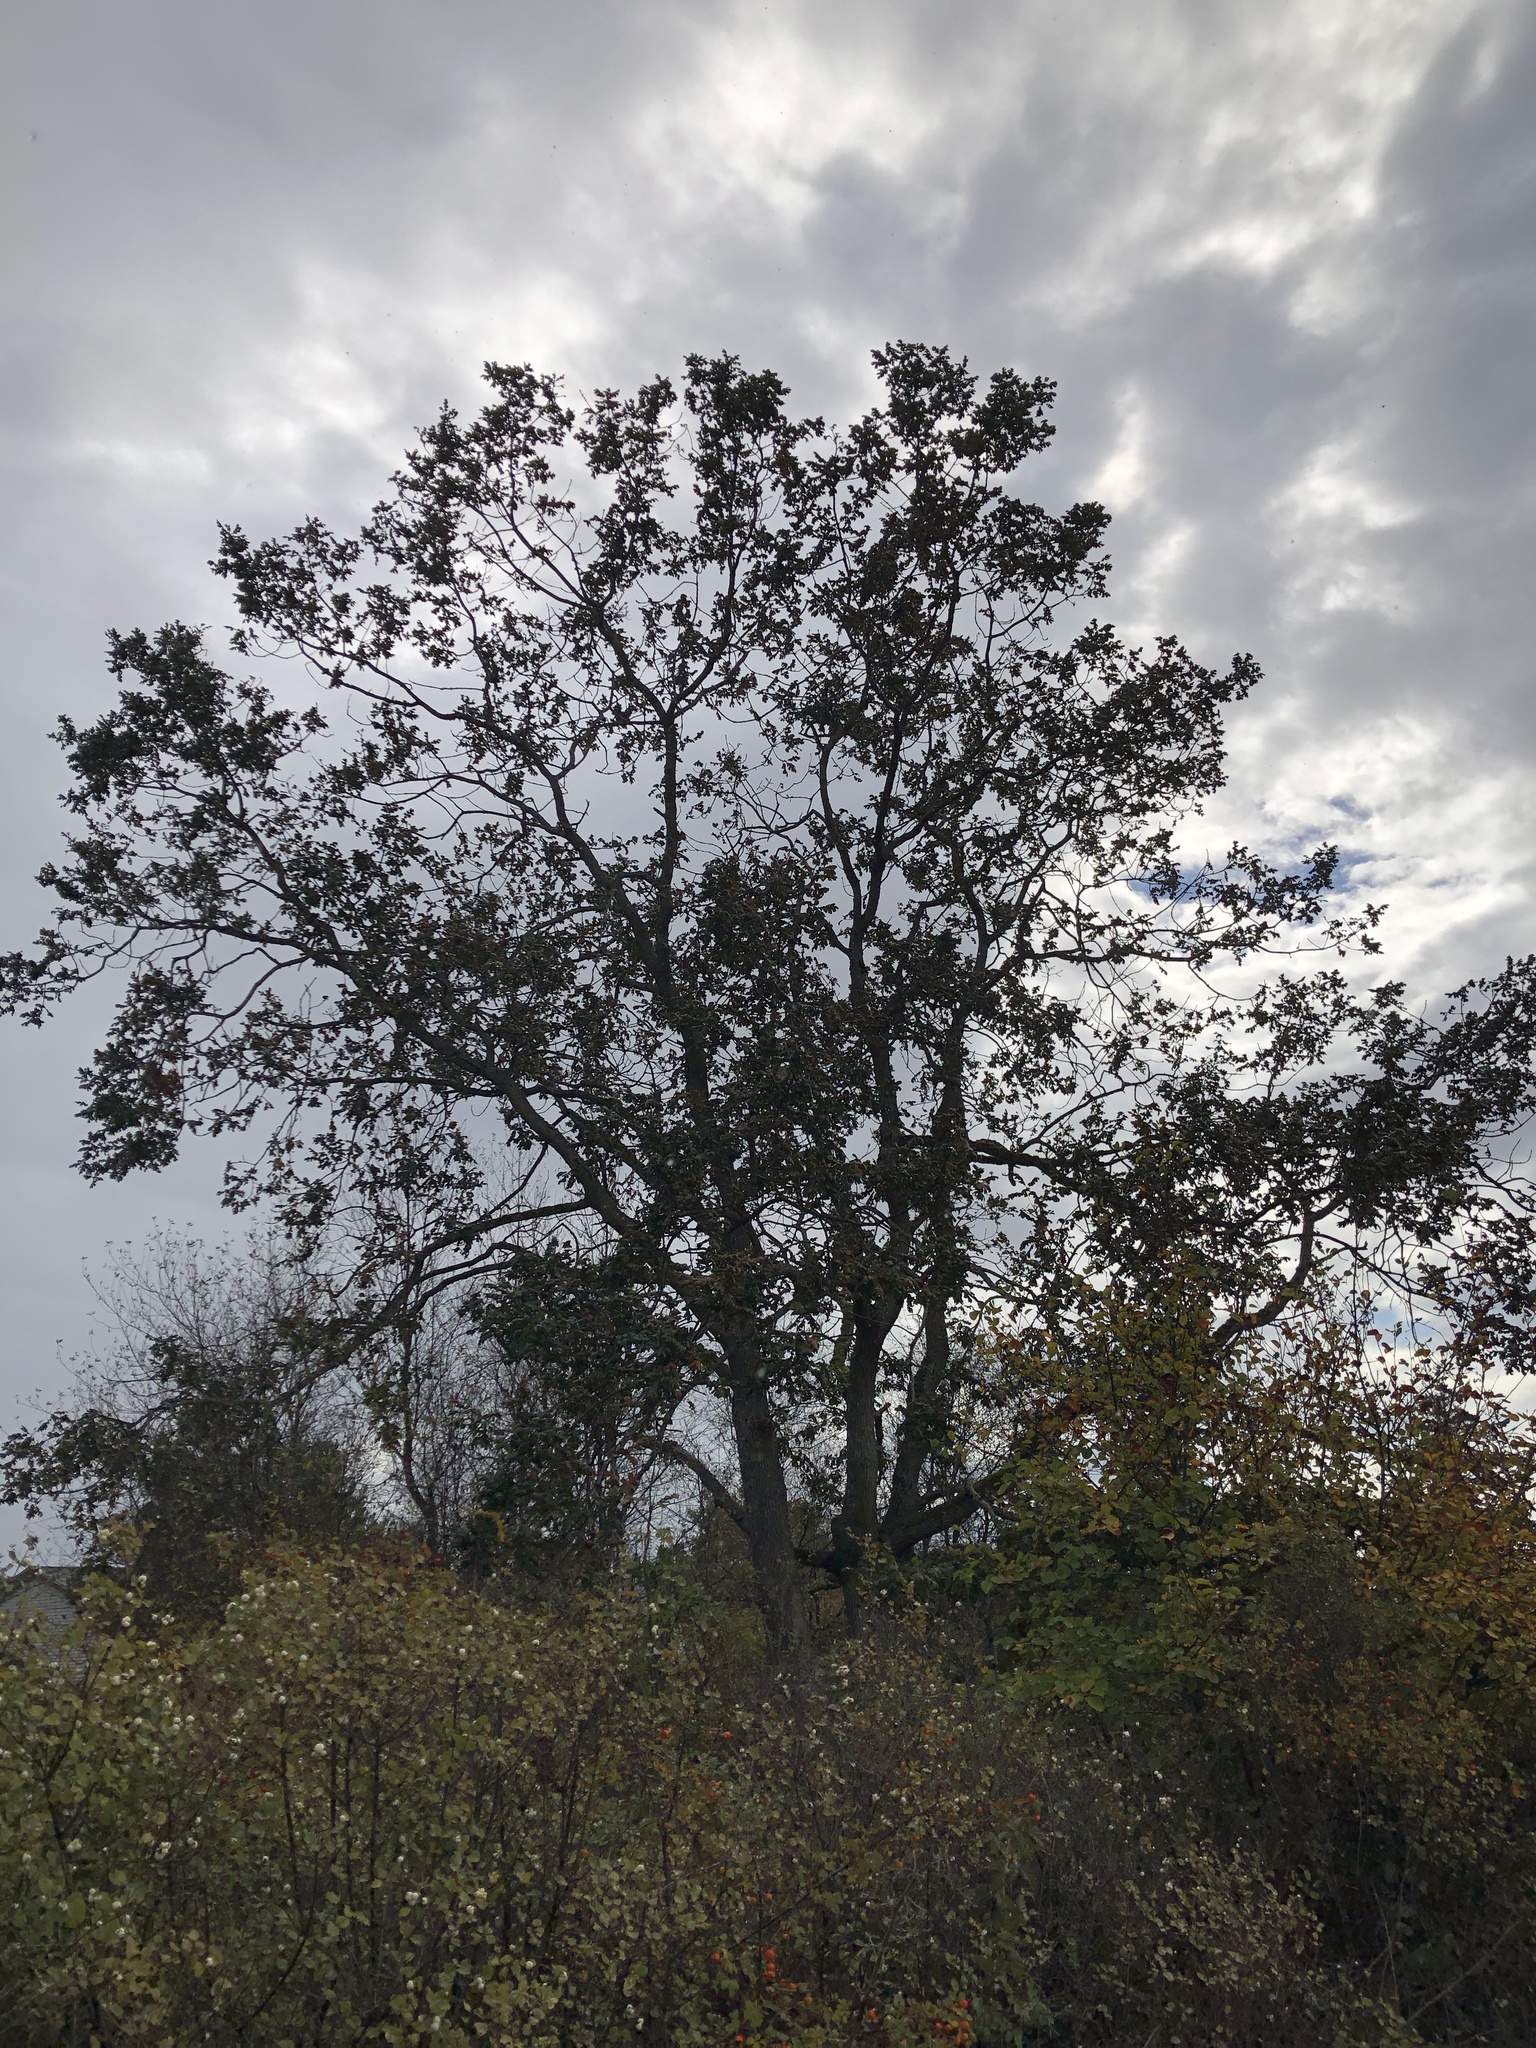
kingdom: Plantae
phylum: Tracheophyta
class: Magnoliopsida
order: Fagales
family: Fagaceae
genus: Quercus
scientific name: Quercus garryana
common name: Garry oak
